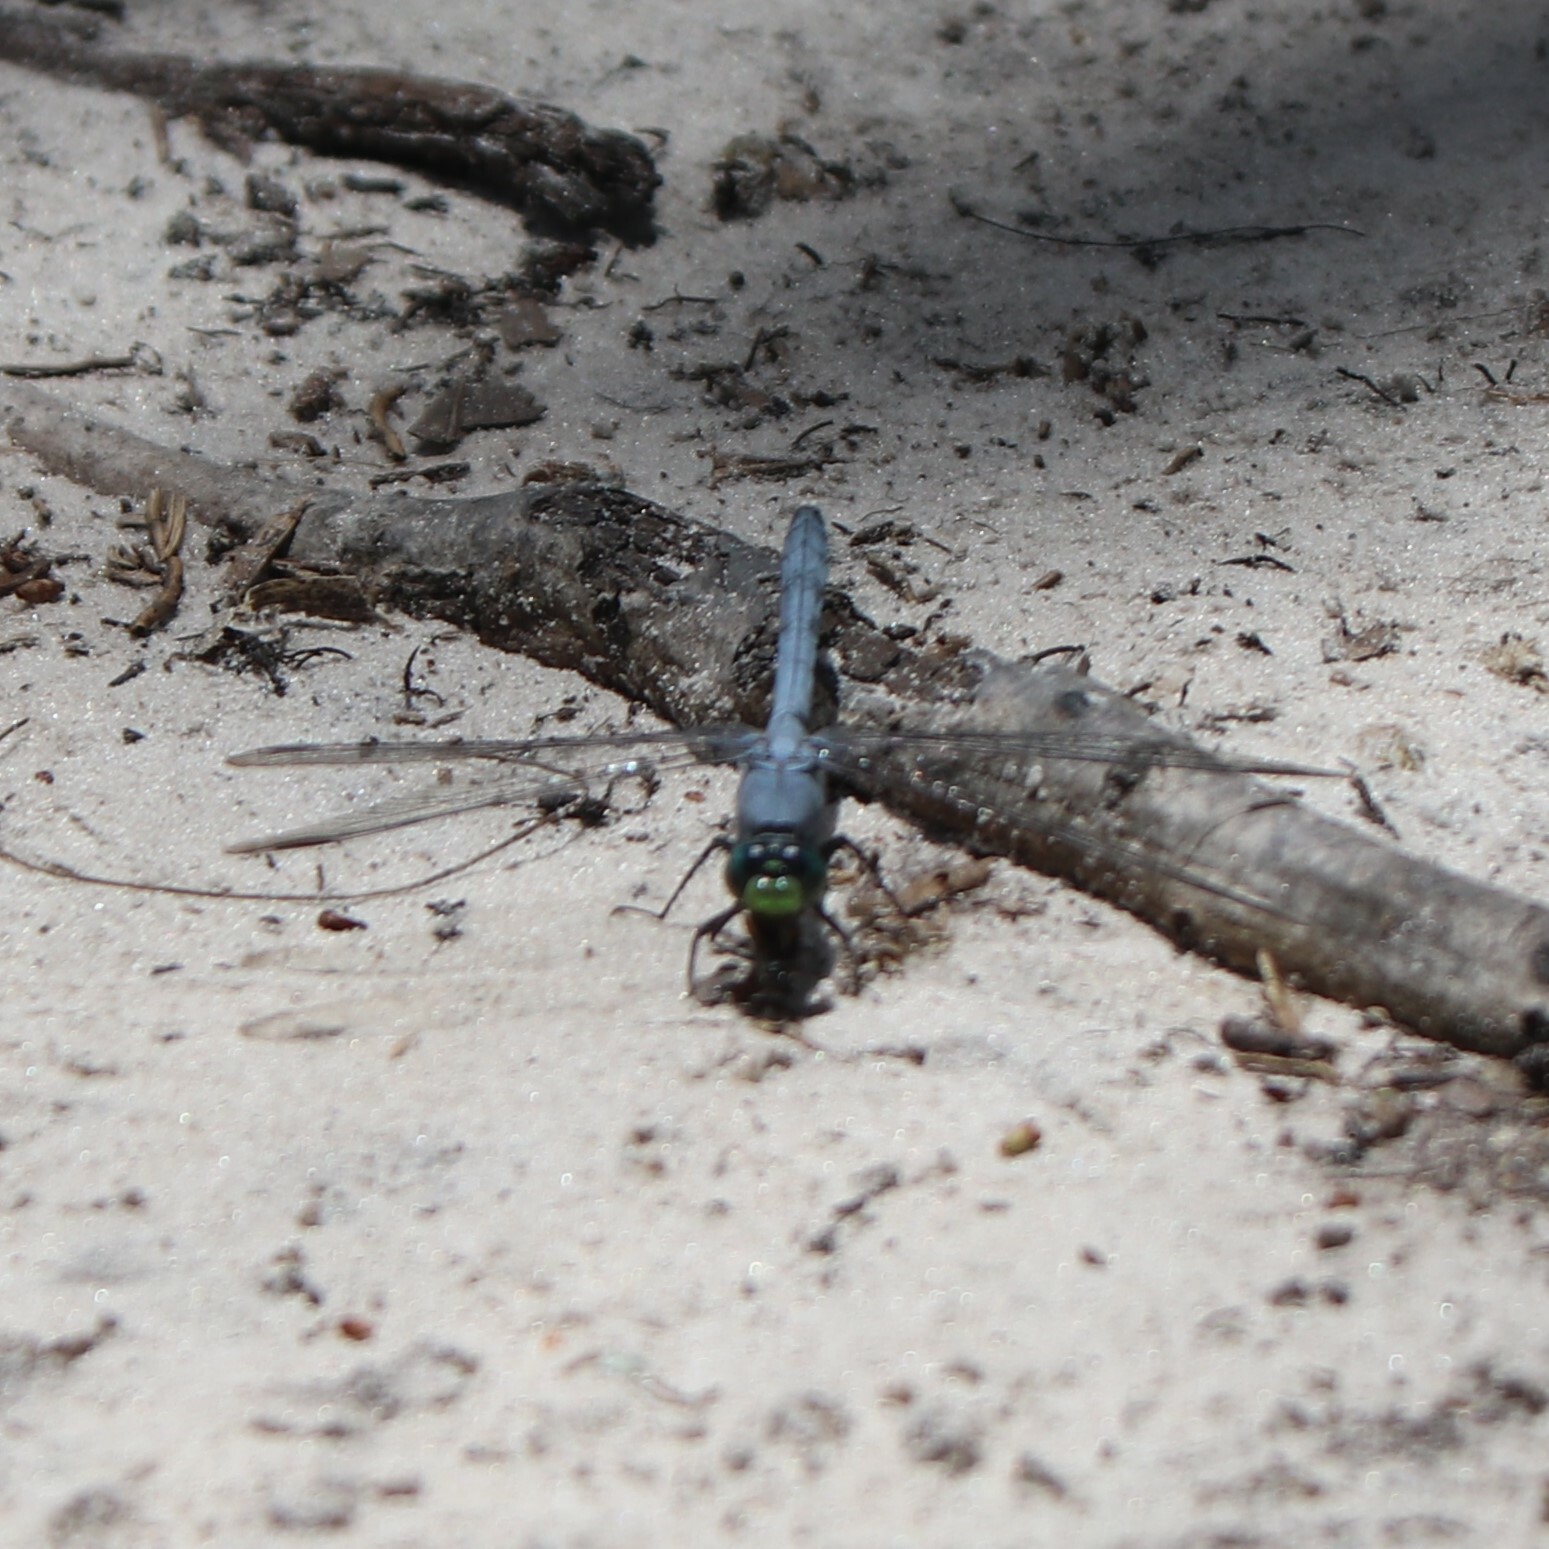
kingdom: Animalia
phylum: Arthropoda
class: Insecta
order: Odonata
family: Libellulidae
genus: Erythemis
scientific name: Erythemis simplicicollis
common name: Eastern pondhawk
